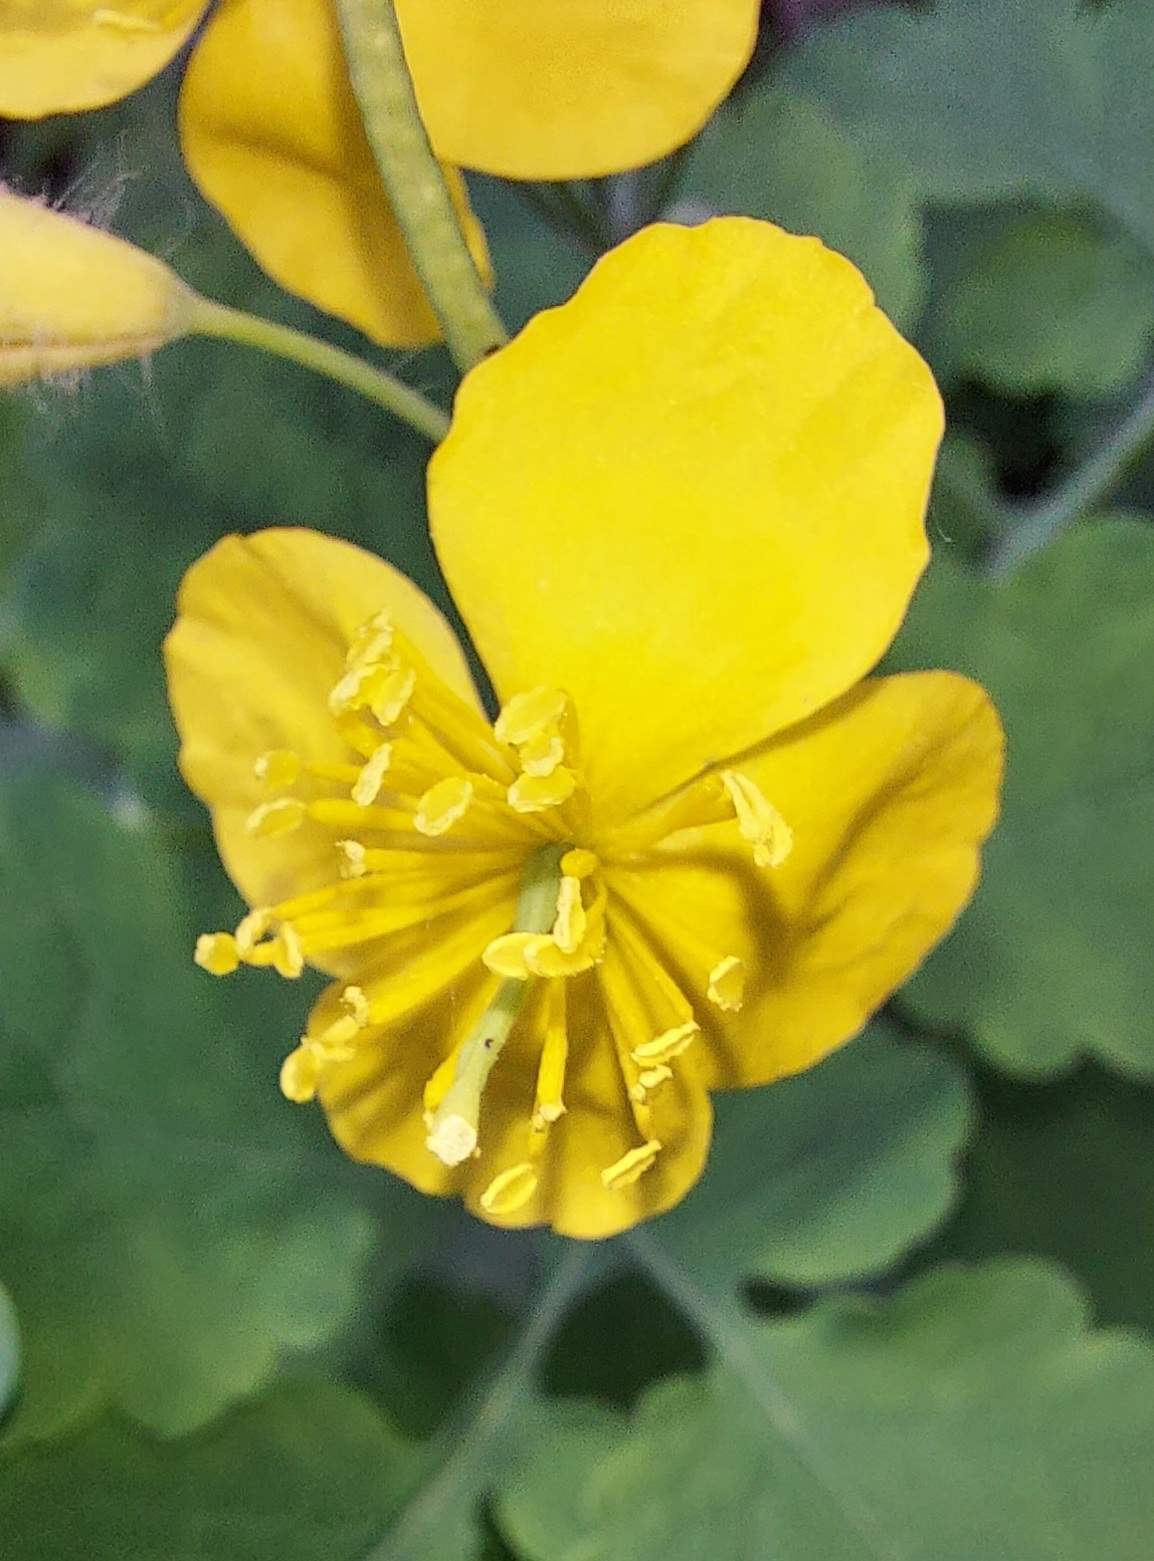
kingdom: Plantae
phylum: Tracheophyta
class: Magnoliopsida
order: Ranunculales
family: Papaveraceae
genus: Chelidonium
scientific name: Chelidonium majus
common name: Greater celandine
